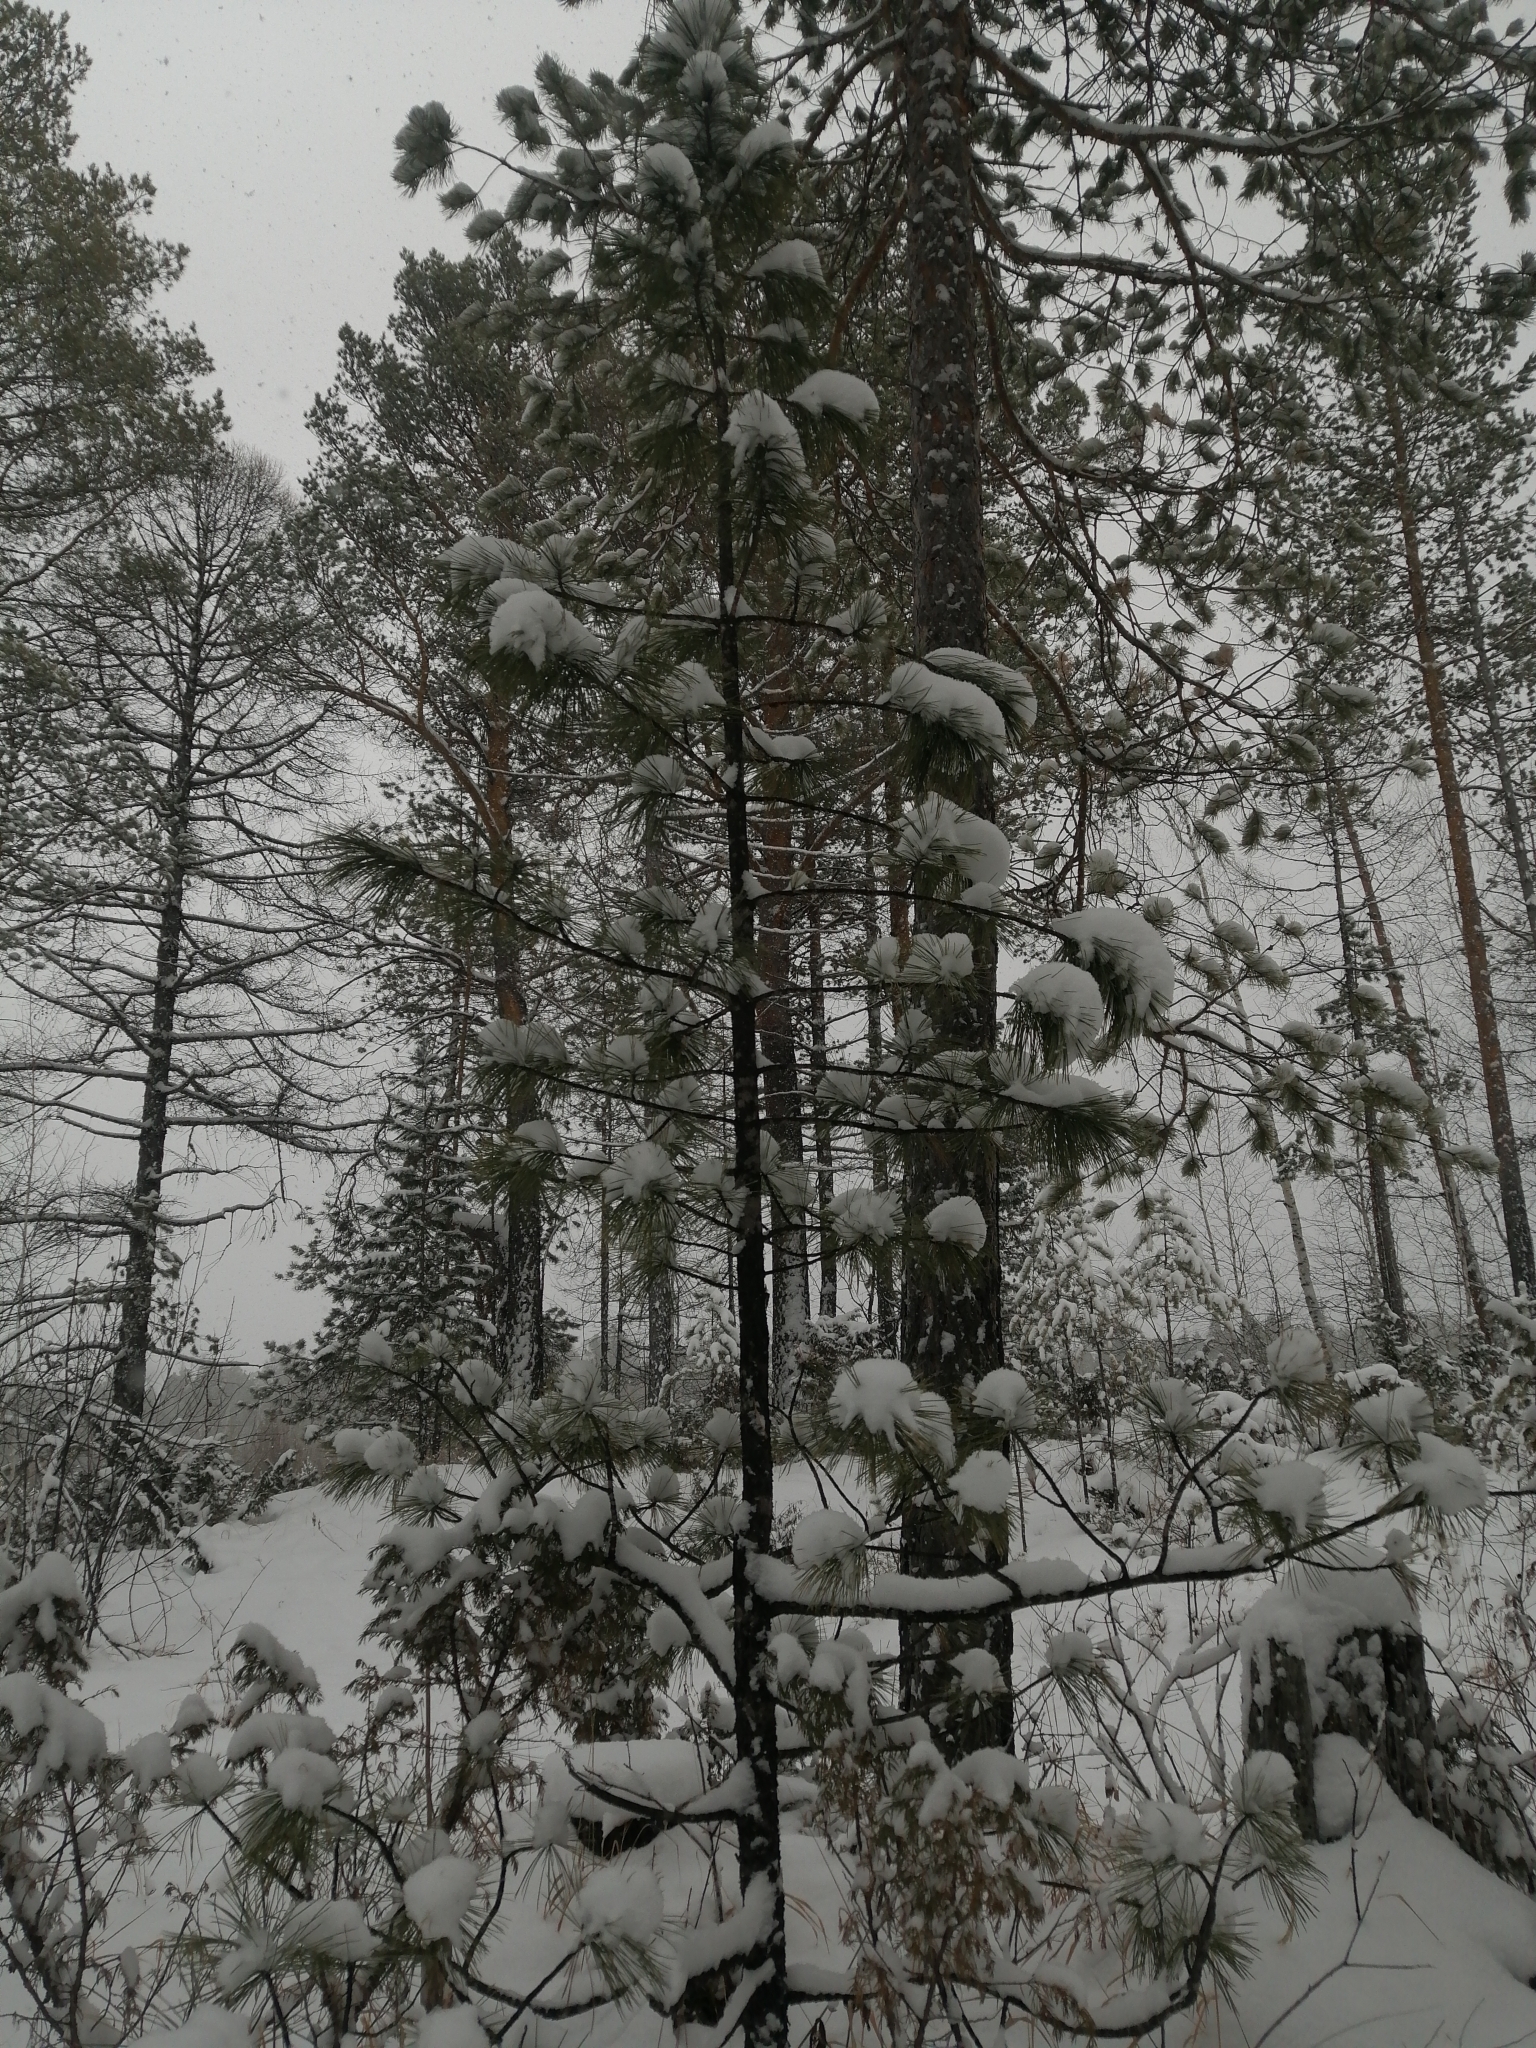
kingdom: Plantae
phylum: Tracheophyta
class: Pinopsida
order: Pinales
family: Pinaceae
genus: Pinus
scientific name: Pinus sibirica
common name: Siberian pine
